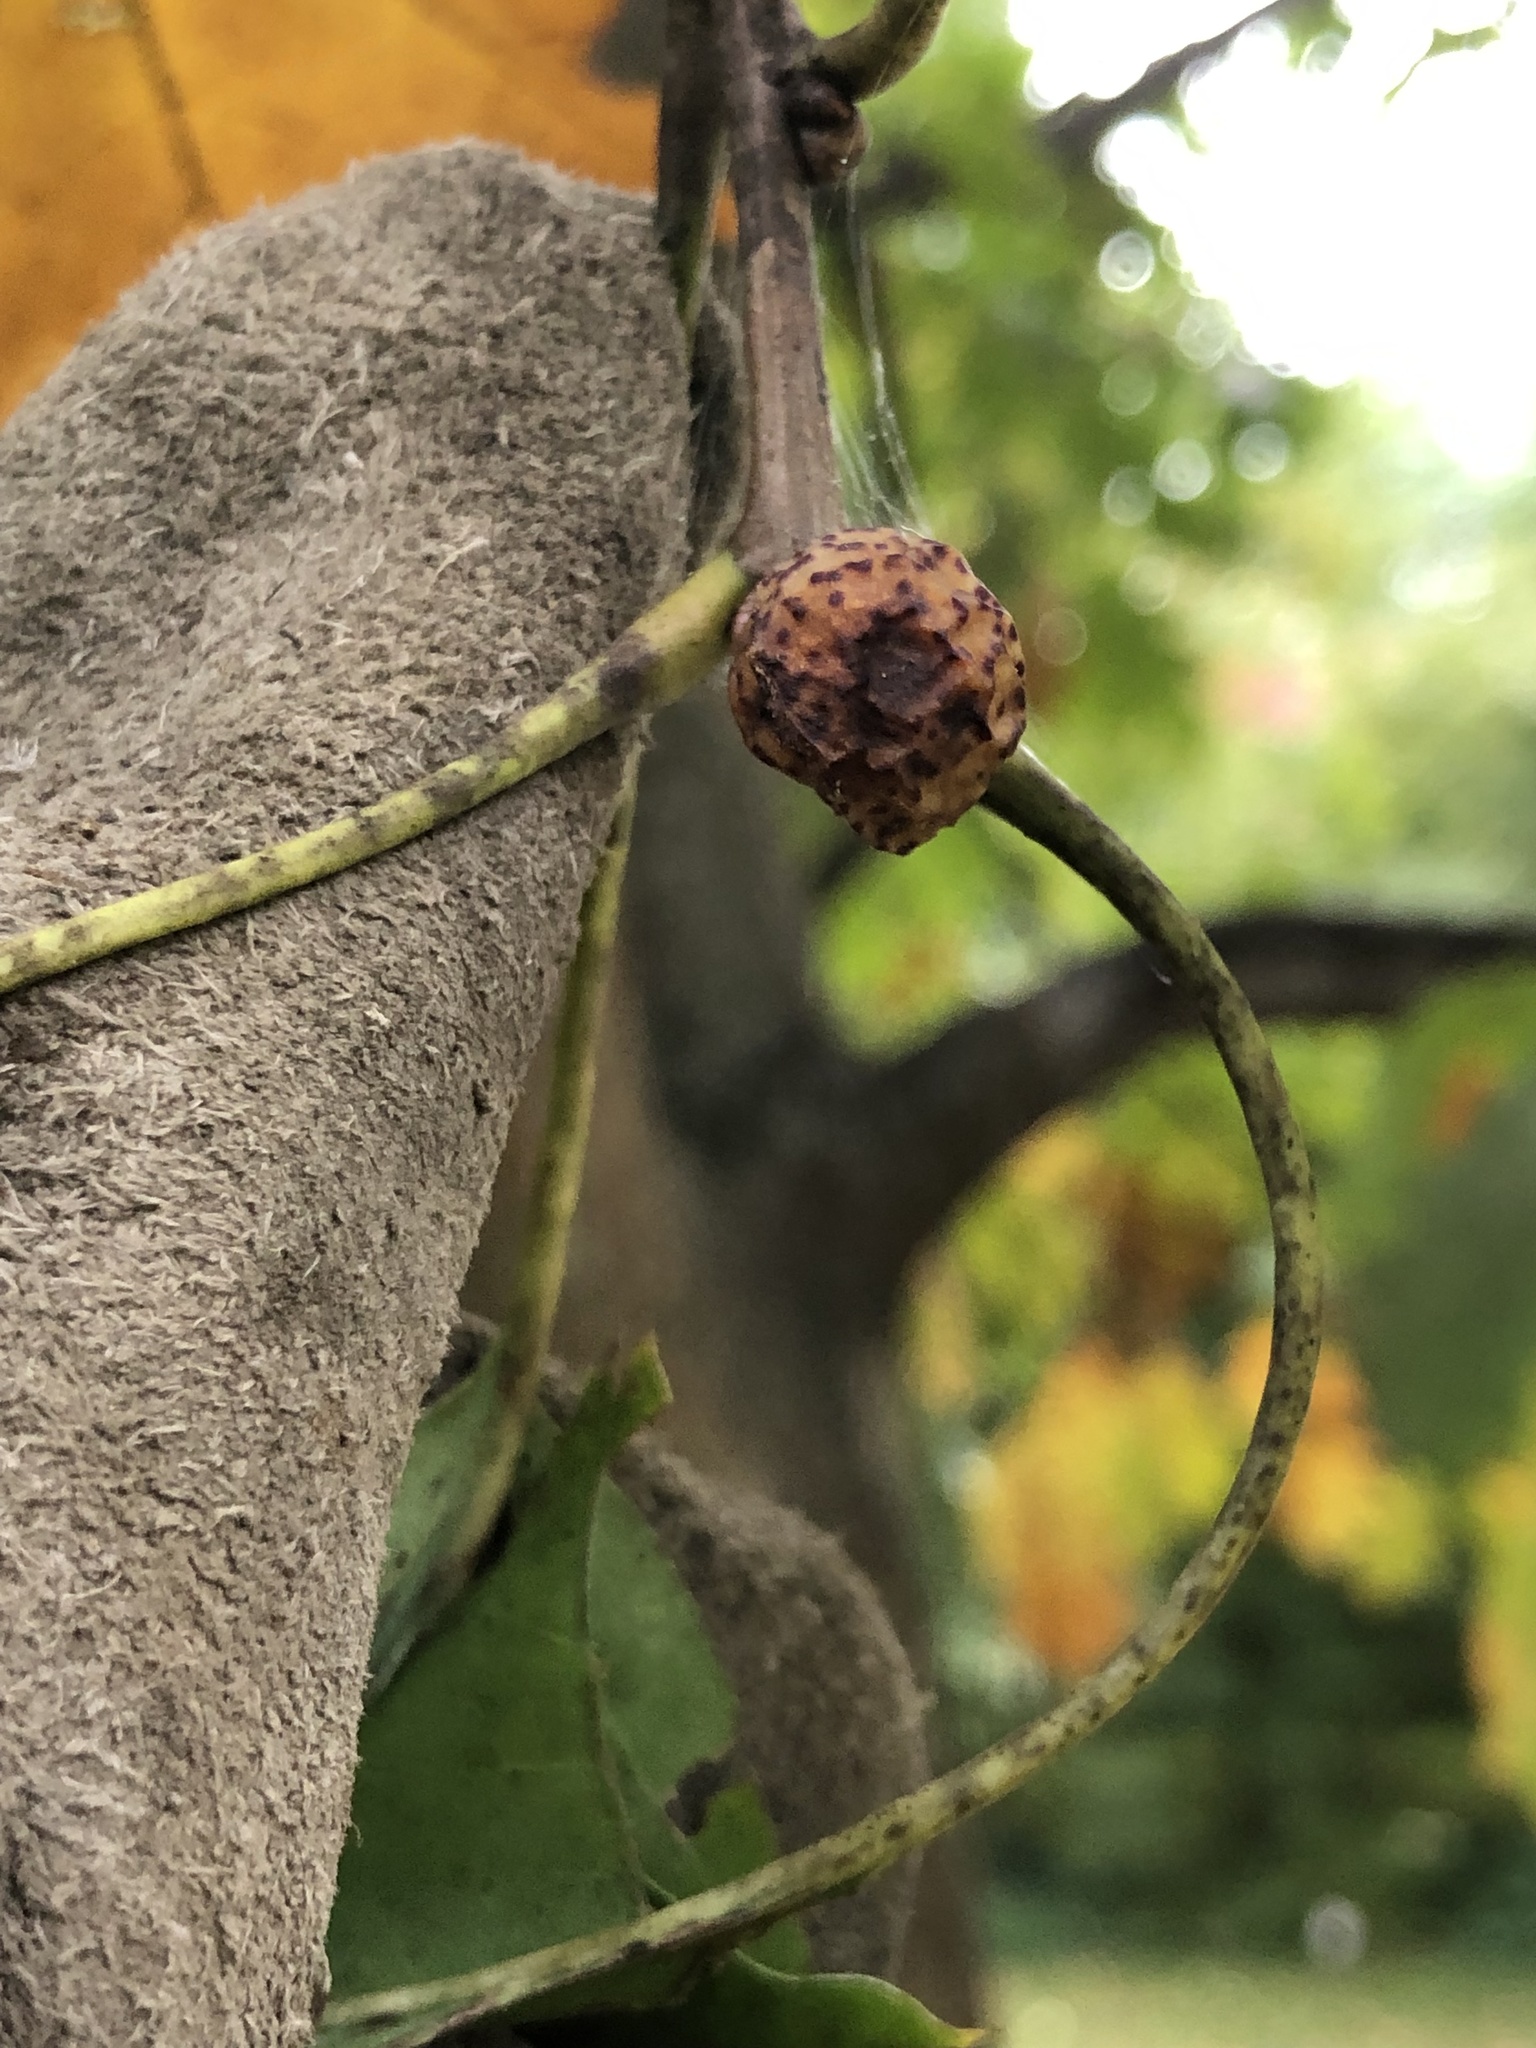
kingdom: Animalia
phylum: Arthropoda
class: Insecta
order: Hymenoptera
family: Cynipidae
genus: Amphibolips
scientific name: Amphibolips
